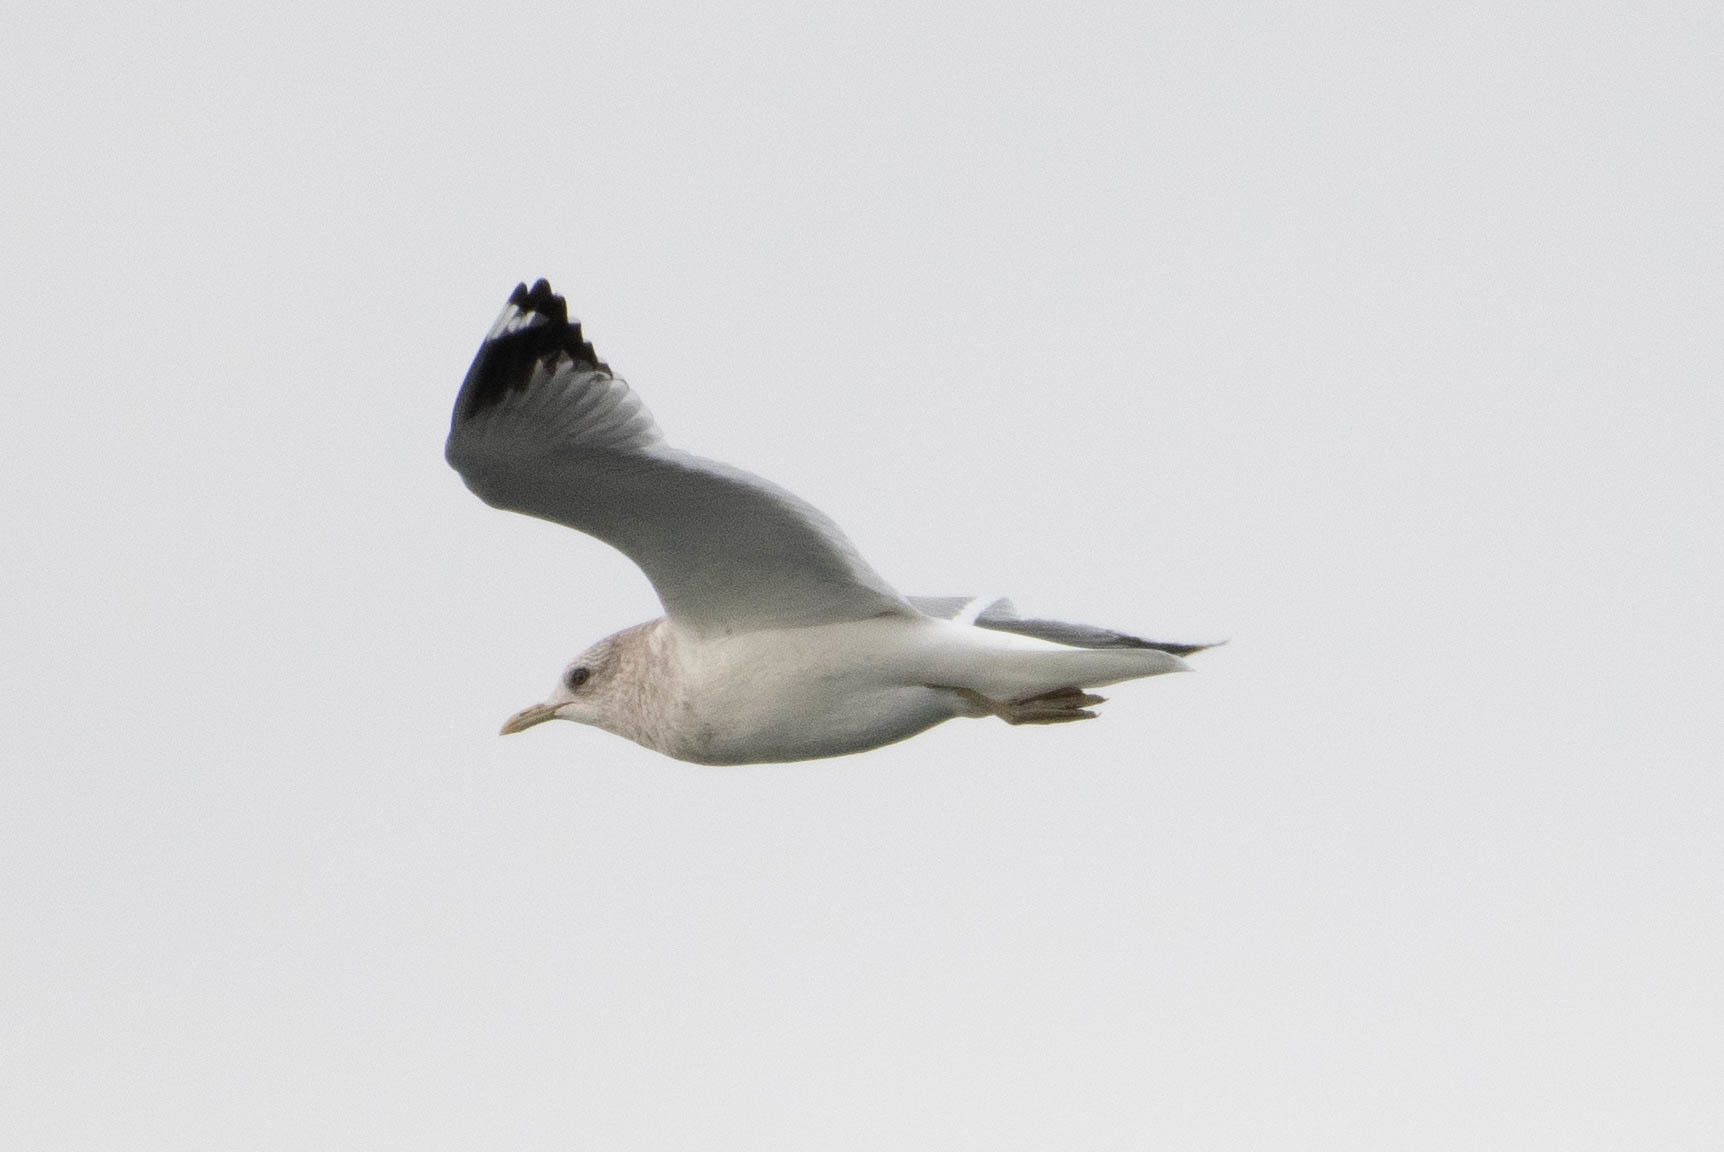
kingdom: Animalia
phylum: Chordata
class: Aves
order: Charadriiformes
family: Laridae
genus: Larus
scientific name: Larus brachyrhynchus
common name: Short-billed gull
